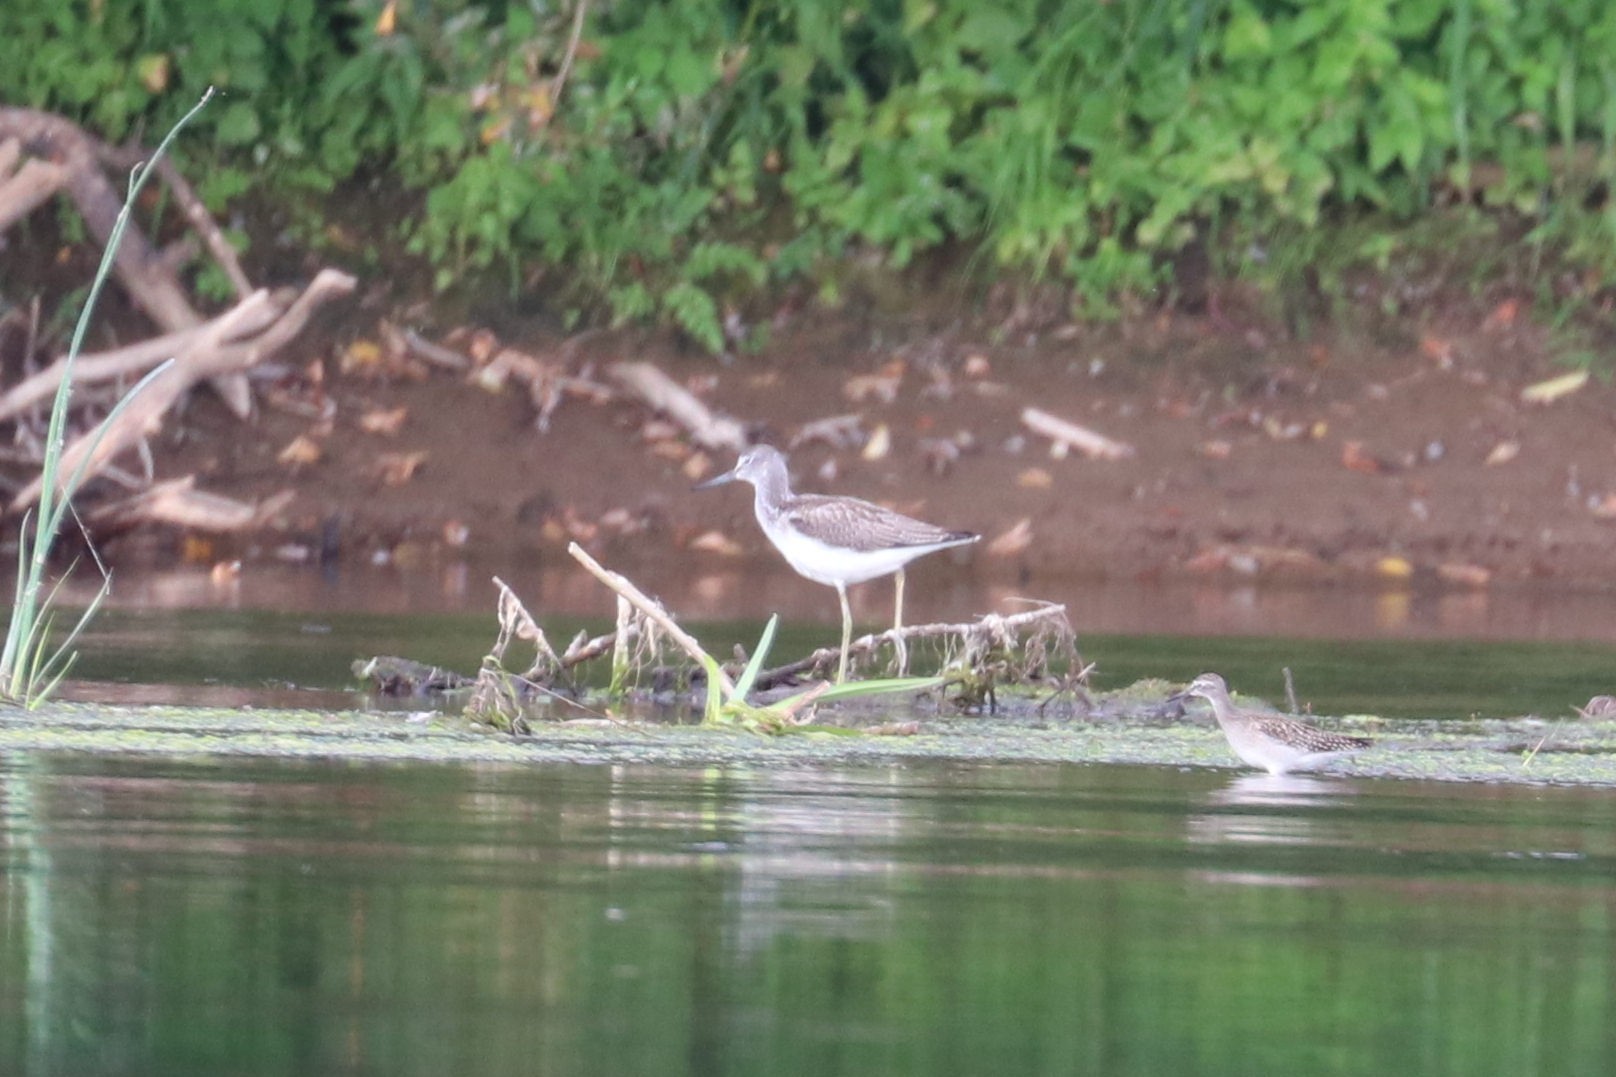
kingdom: Animalia
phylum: Chordata
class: Aves
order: Charadriiformes
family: Scolopacidae
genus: Tringa
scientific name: Tringa nebularia
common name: Common greenshank
